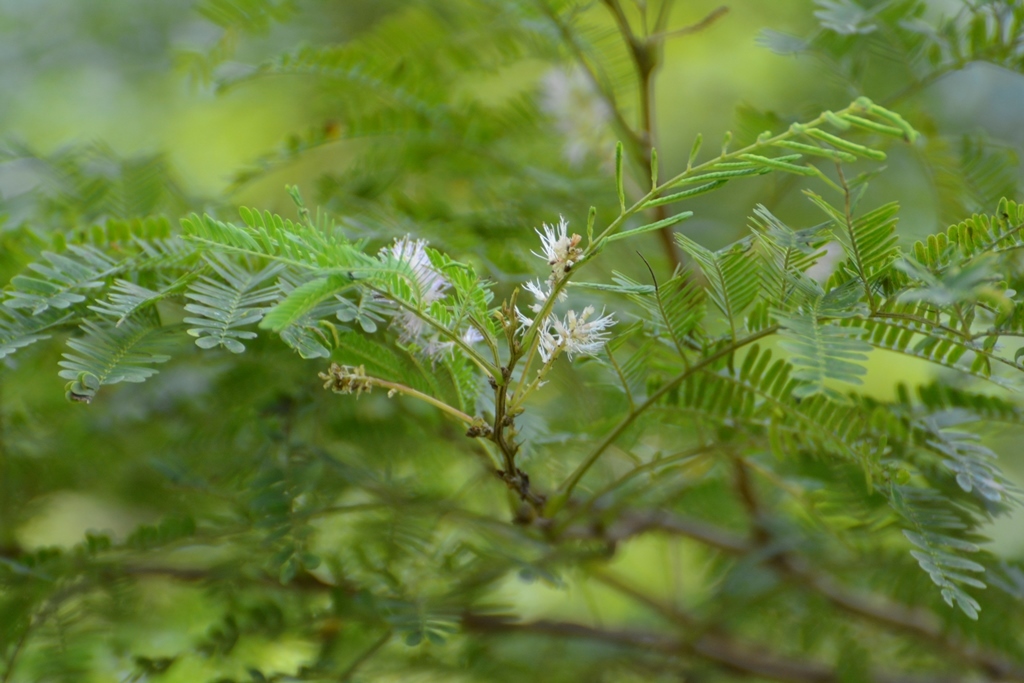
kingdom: Plantae
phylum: Tracheophyta
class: Magnoliopsida
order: Fabales
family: Fabaceae
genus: Mimosa
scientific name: Mimosa platycarpa
